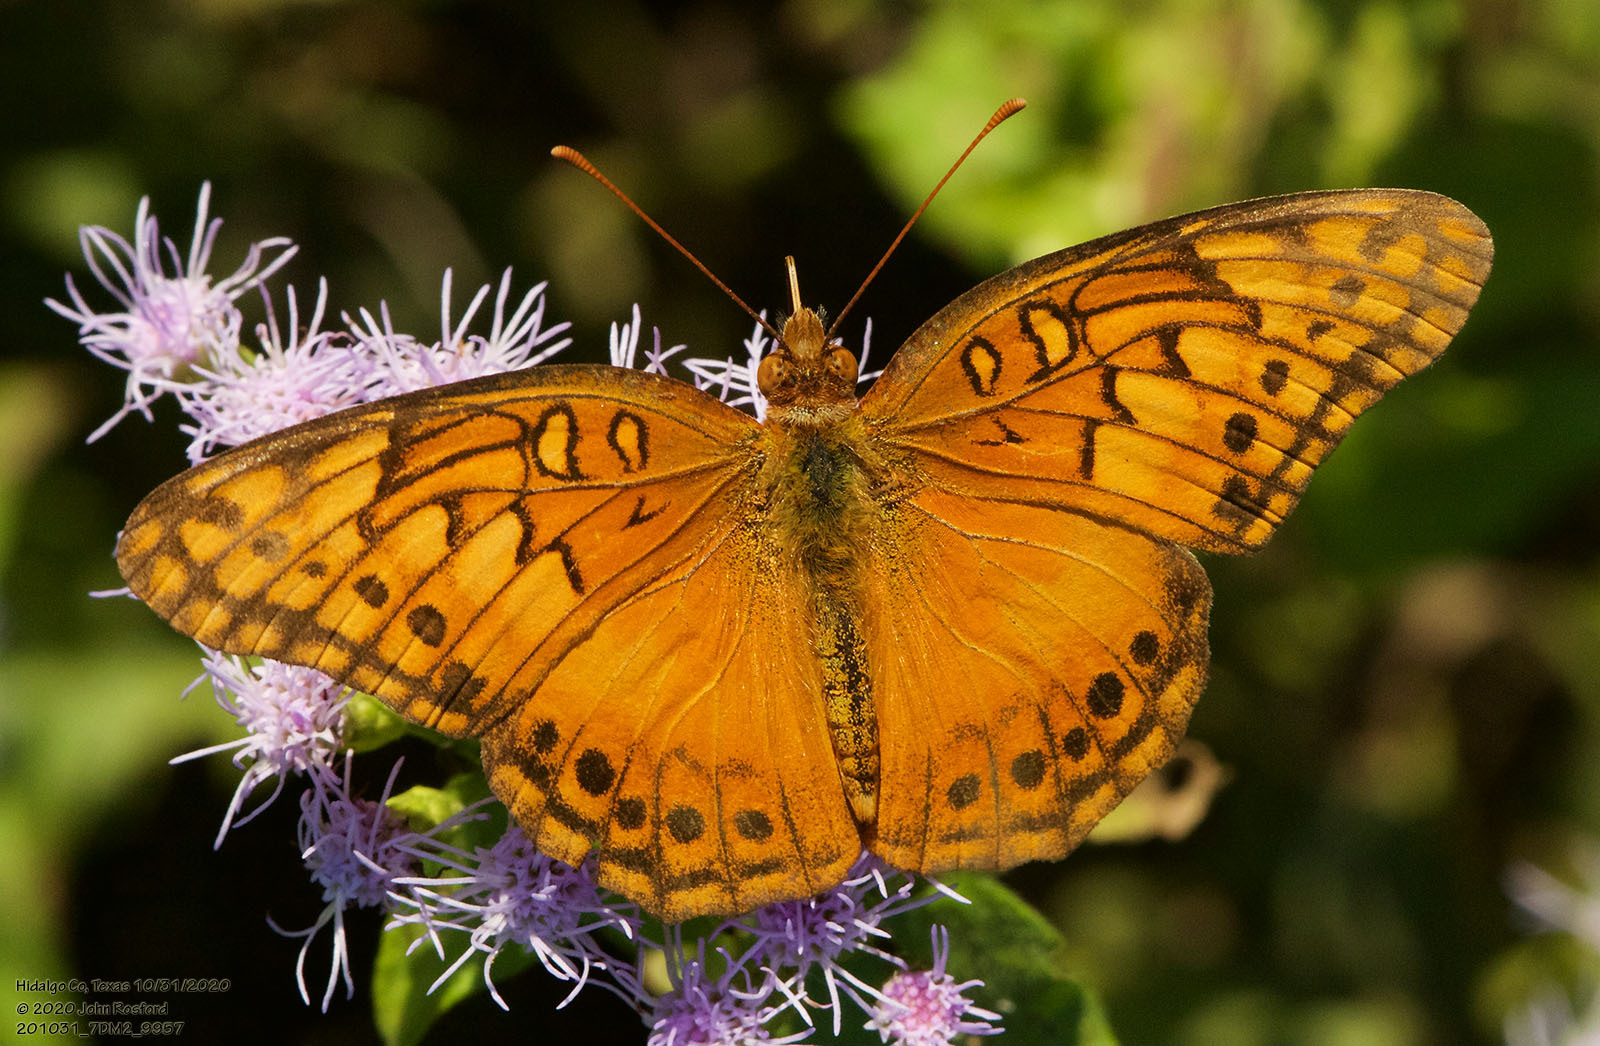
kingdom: Animalia
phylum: Arthropoda
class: Insecta
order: Lepidoptera
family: Nymphalidae
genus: Euptoieta
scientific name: Euptoieta hegesia
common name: Mexican fritillary
